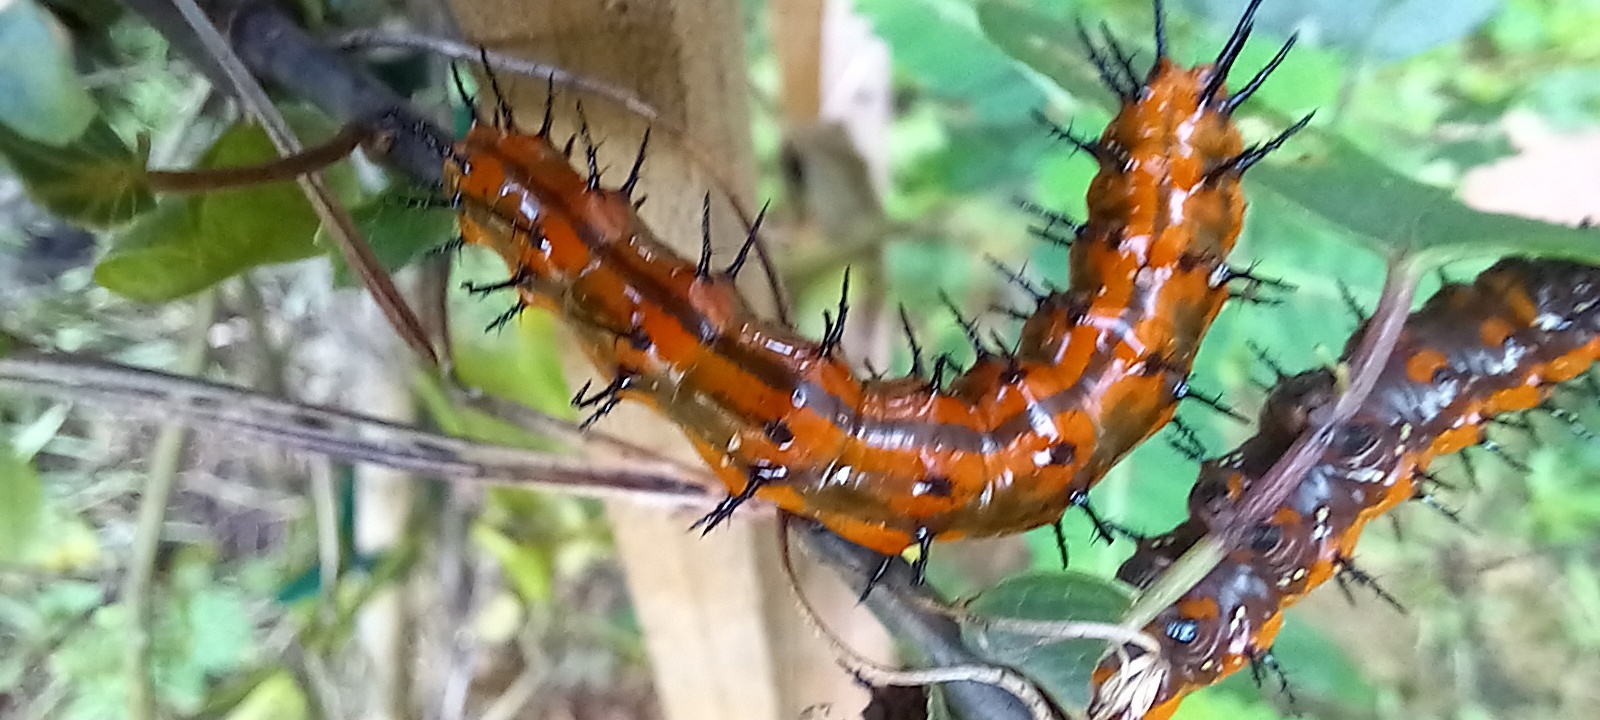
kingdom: Animalia
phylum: Arthropoda
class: Insecta
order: Lepidoptera
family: Nymphalidae
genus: Dione
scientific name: Dione vanillae
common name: Gulf fritillary
